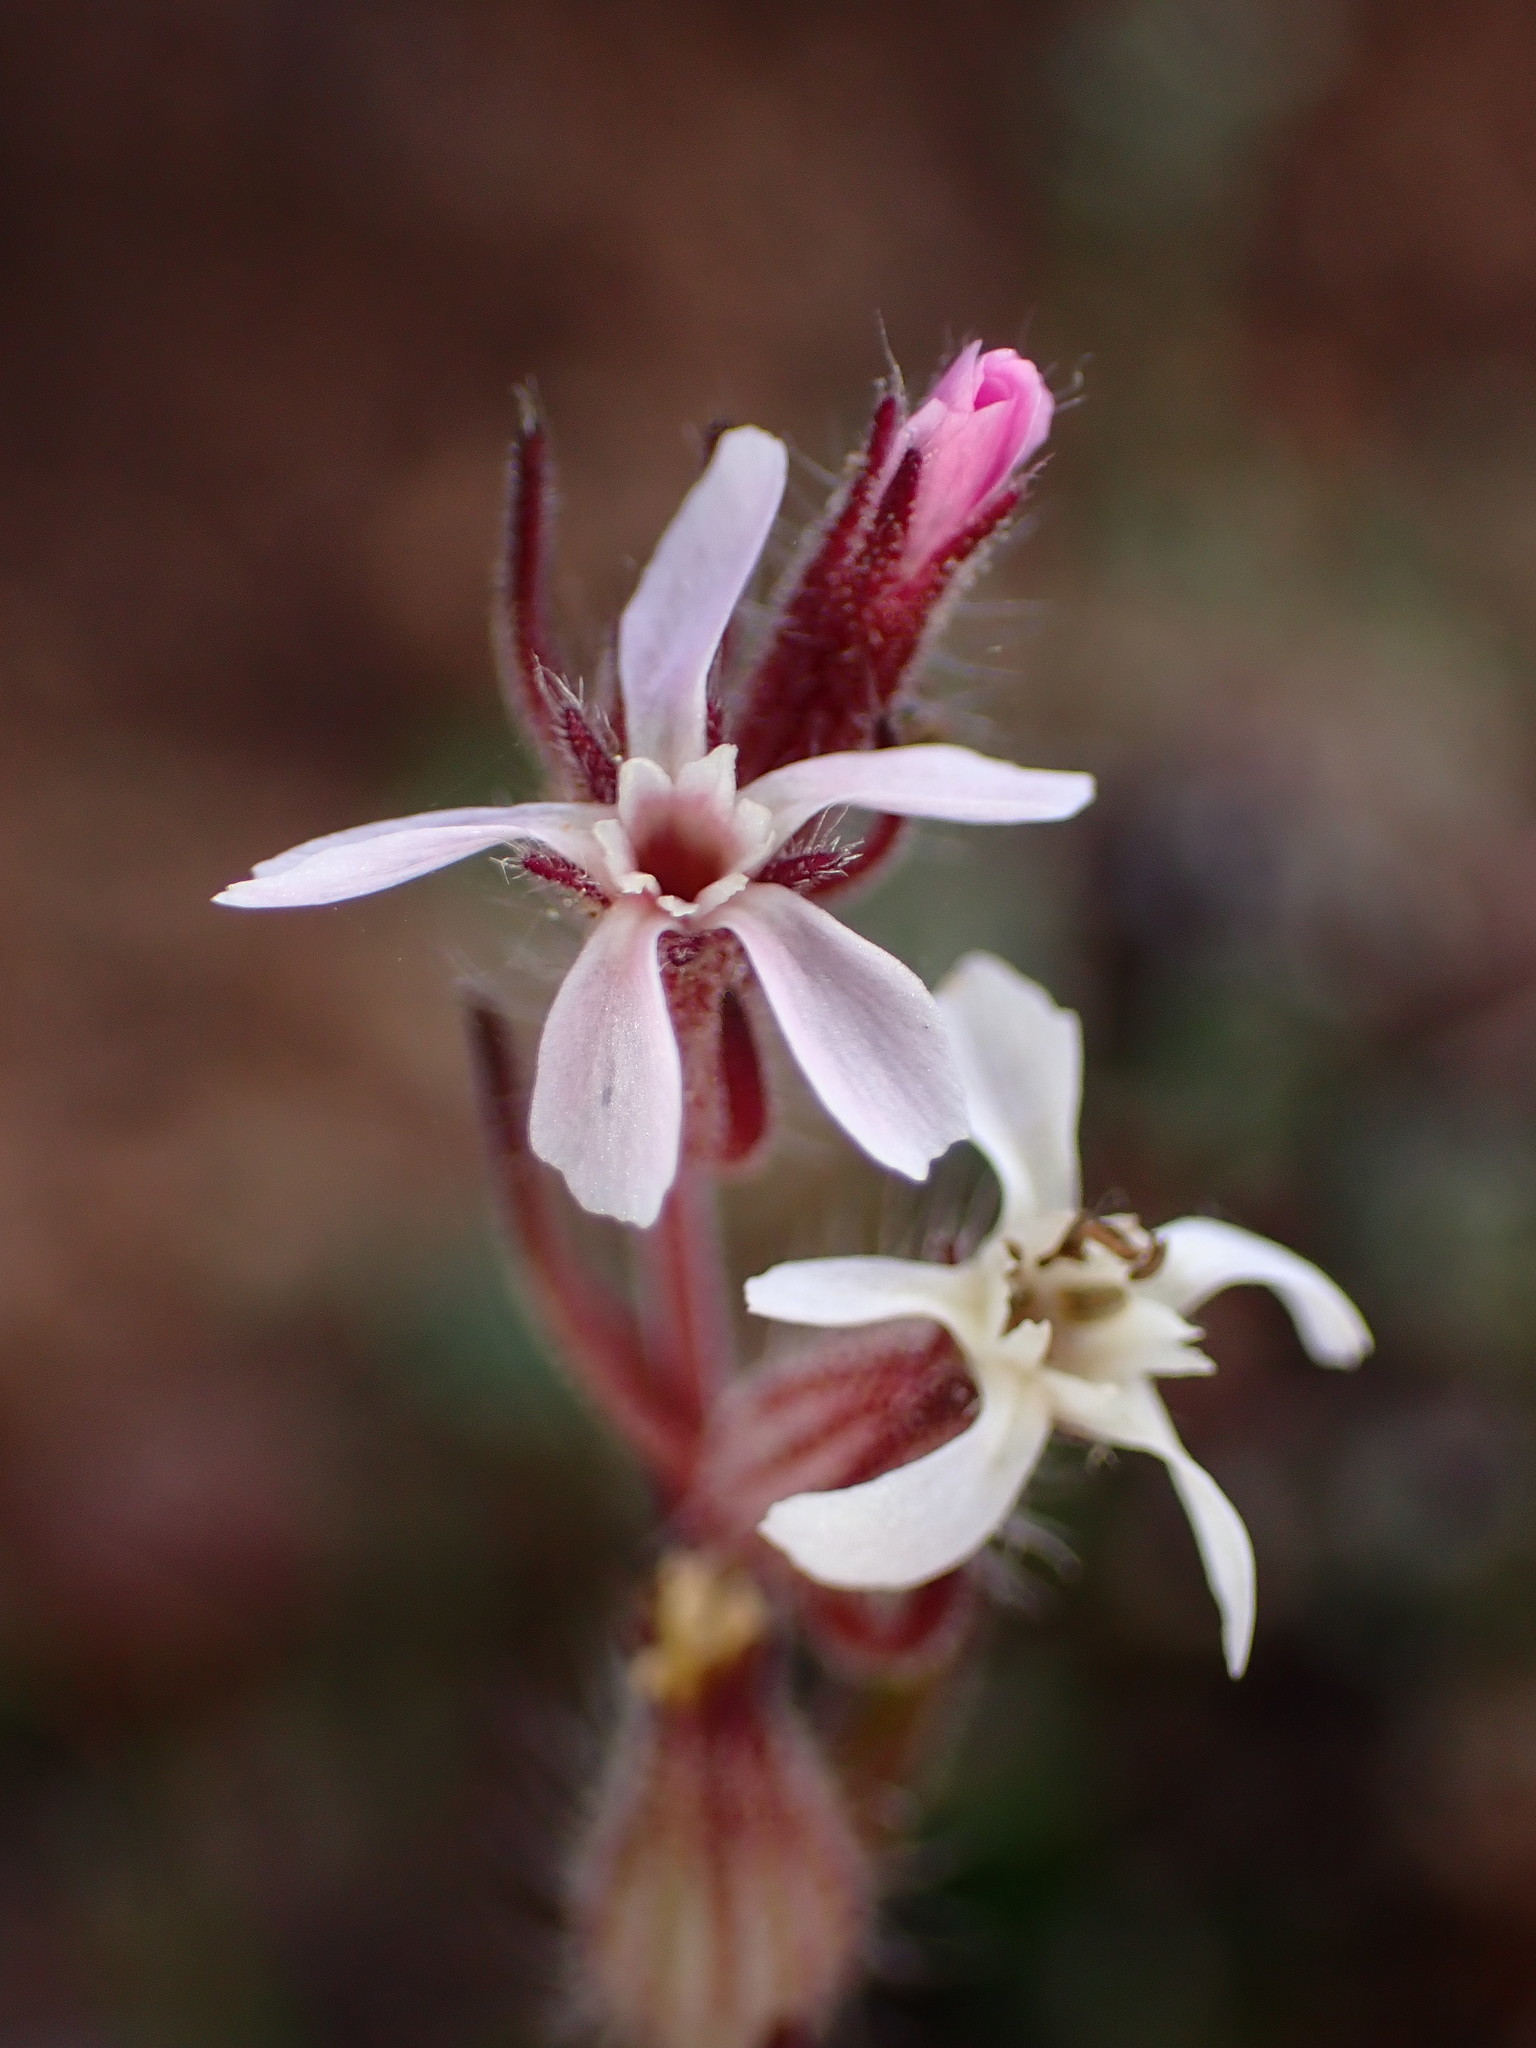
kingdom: Plantae
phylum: Tracheophyta
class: Magnoliopsida
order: Caryophyllales
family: Caryophyllaceae
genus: Silene
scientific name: Silene gallica
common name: Small-flowered catchfly
